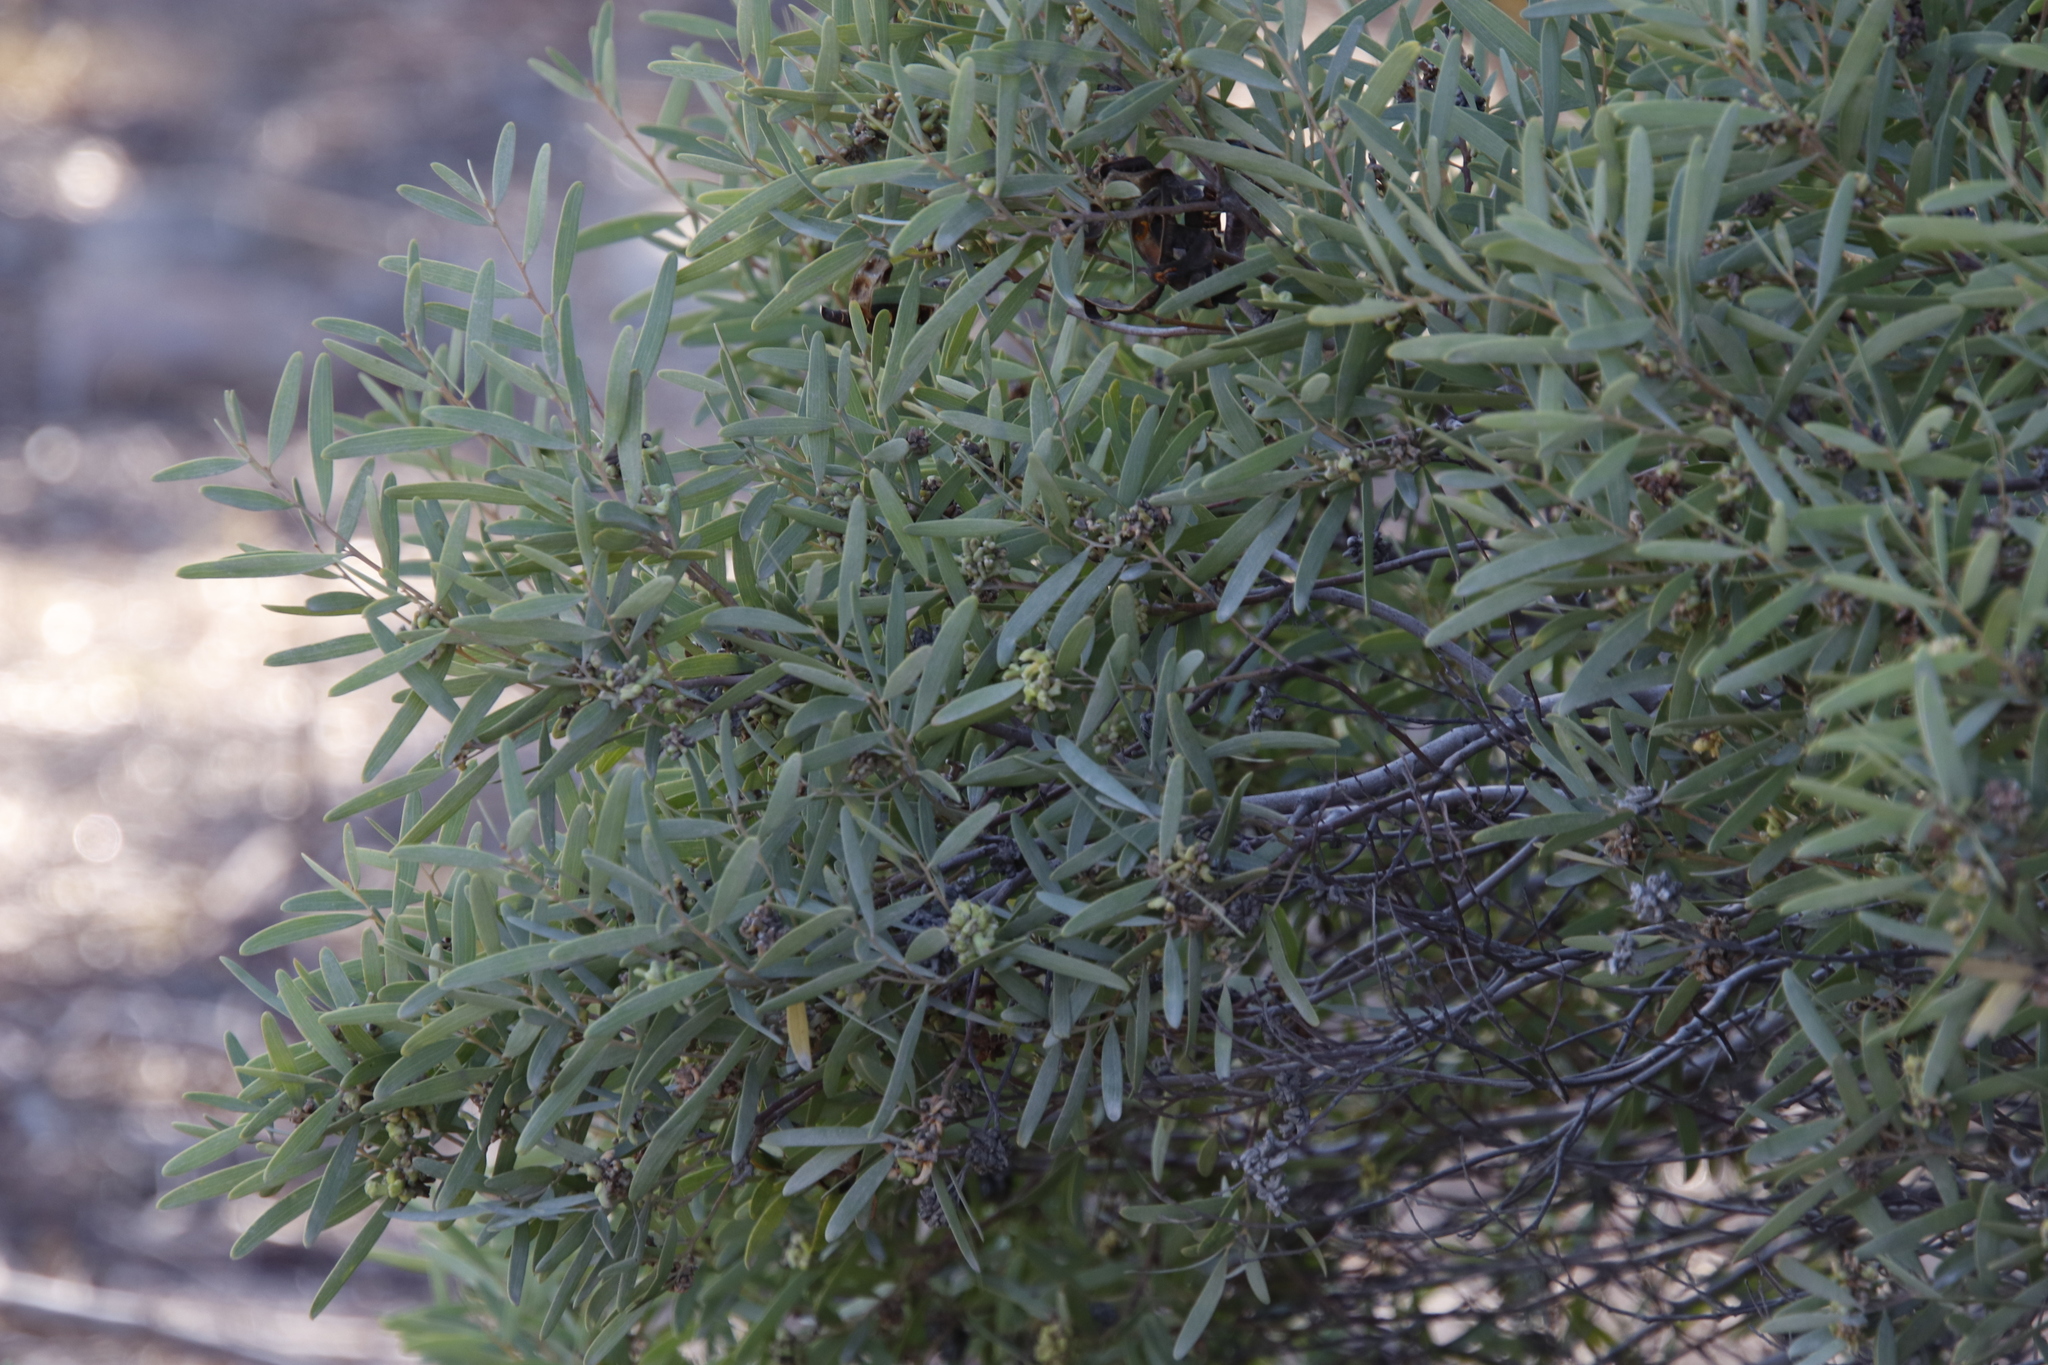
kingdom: Plantae
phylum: Tracheophyta
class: Magnoliopsida
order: Fabales
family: Fabaceae
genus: Acacia
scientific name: Acacia cyclops
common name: Coastal wattle
